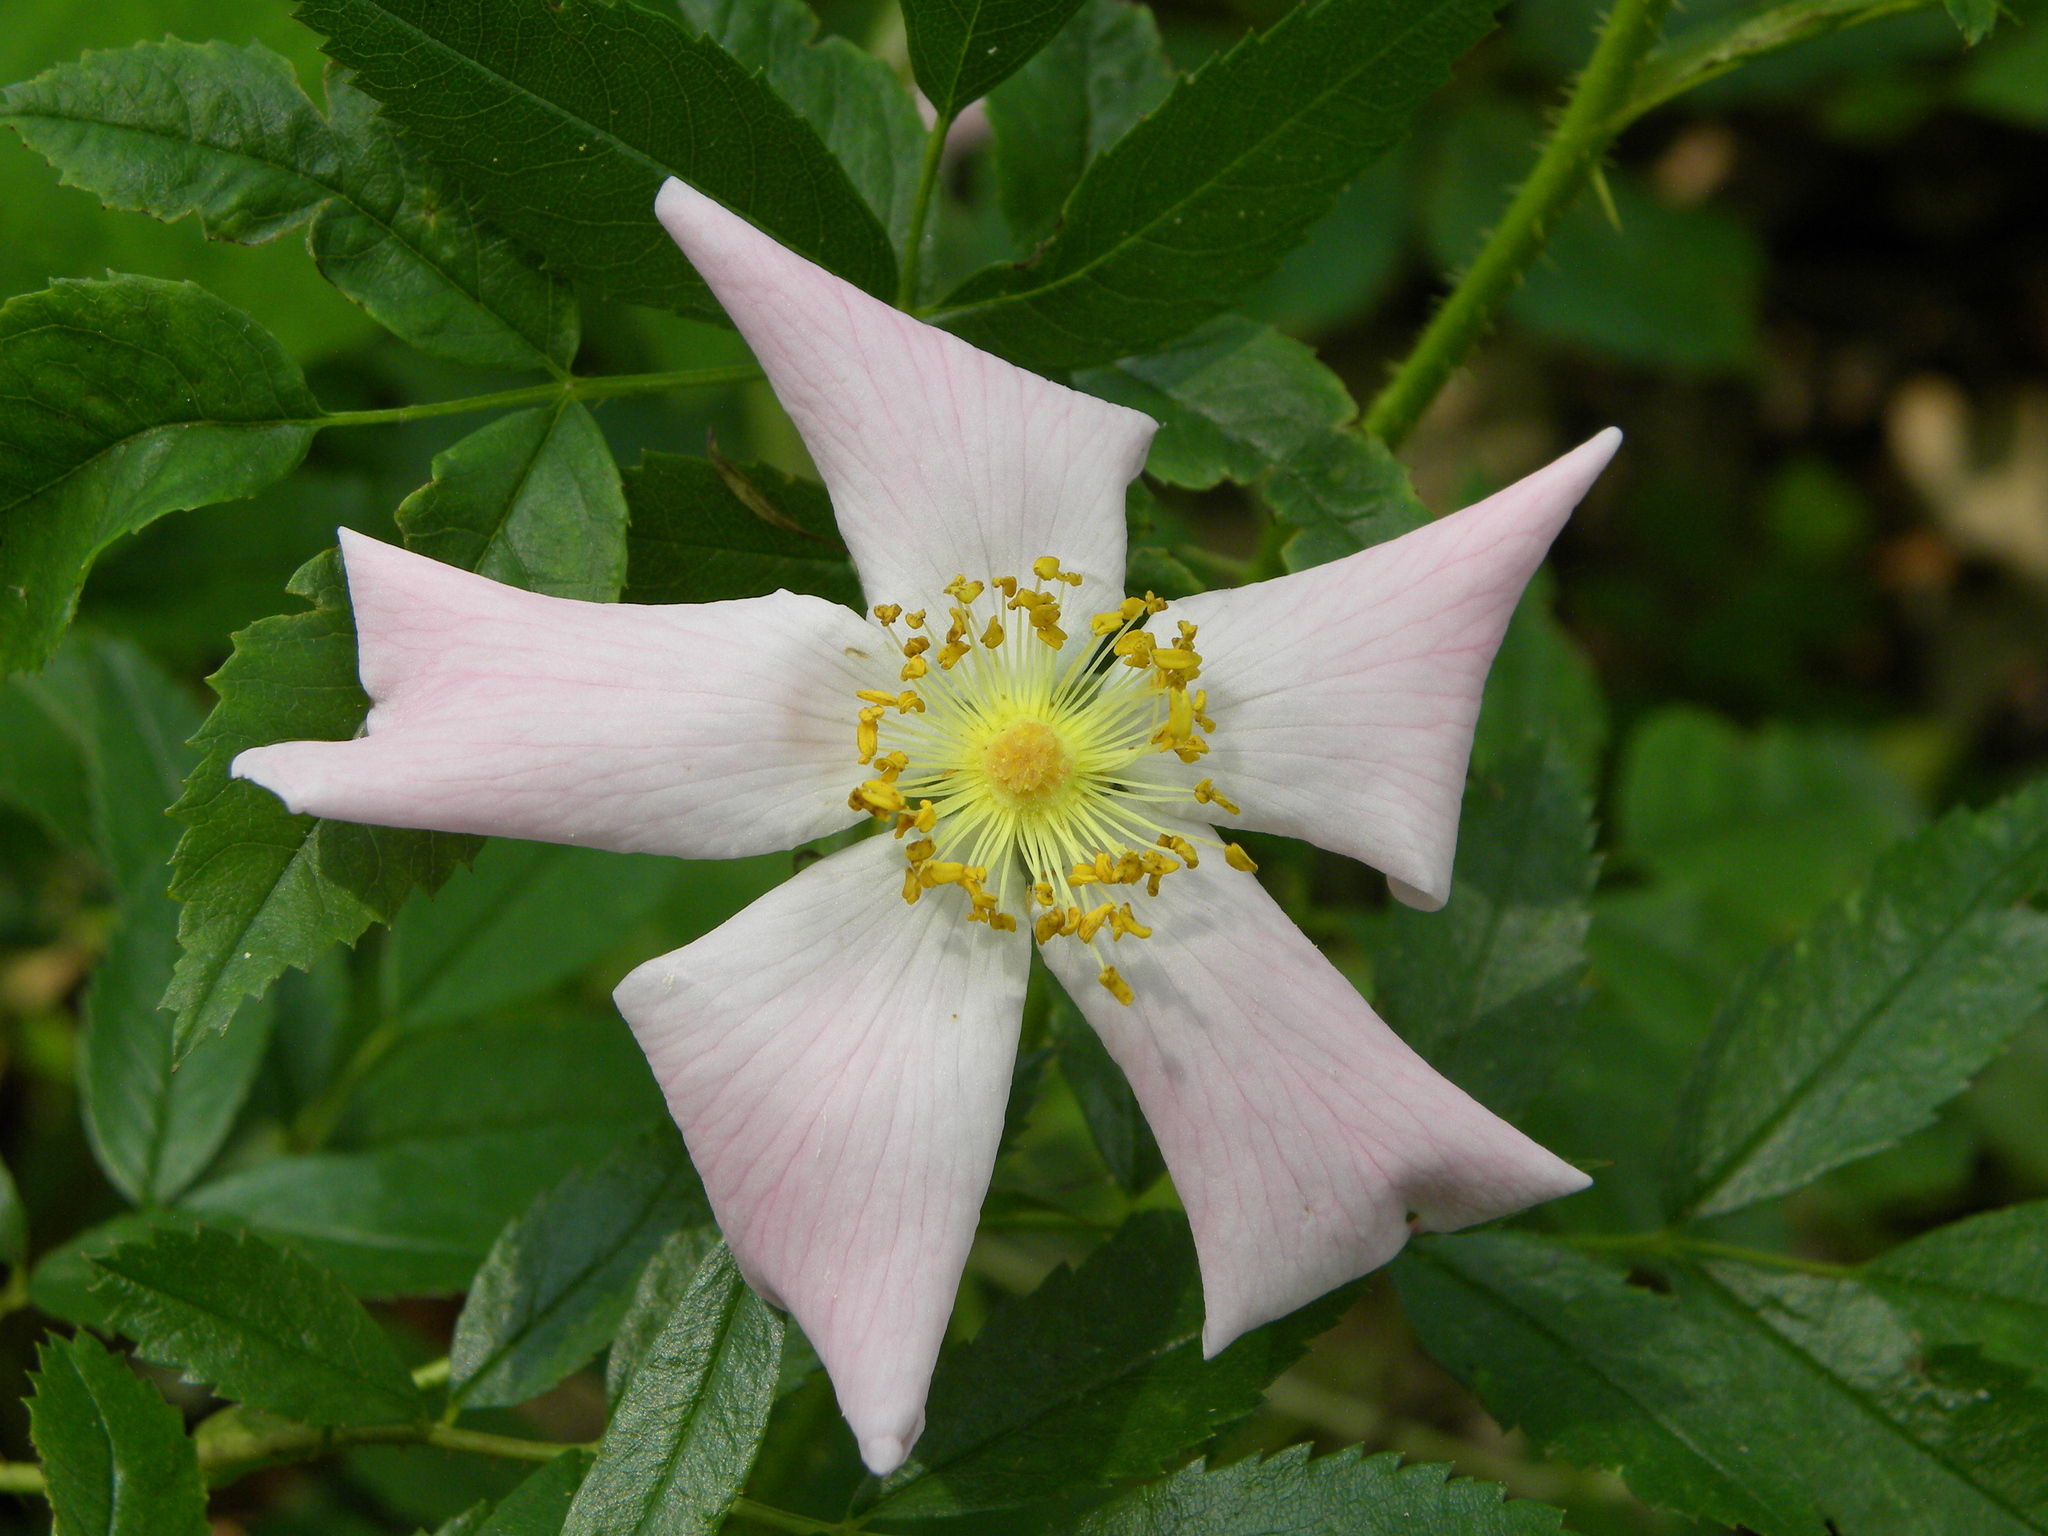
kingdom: Plantae
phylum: Tracheophyta
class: Magnoliopsida
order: Rosales
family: Rosaceae
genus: Rosa
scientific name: Rosa carolina
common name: Pasture rose
